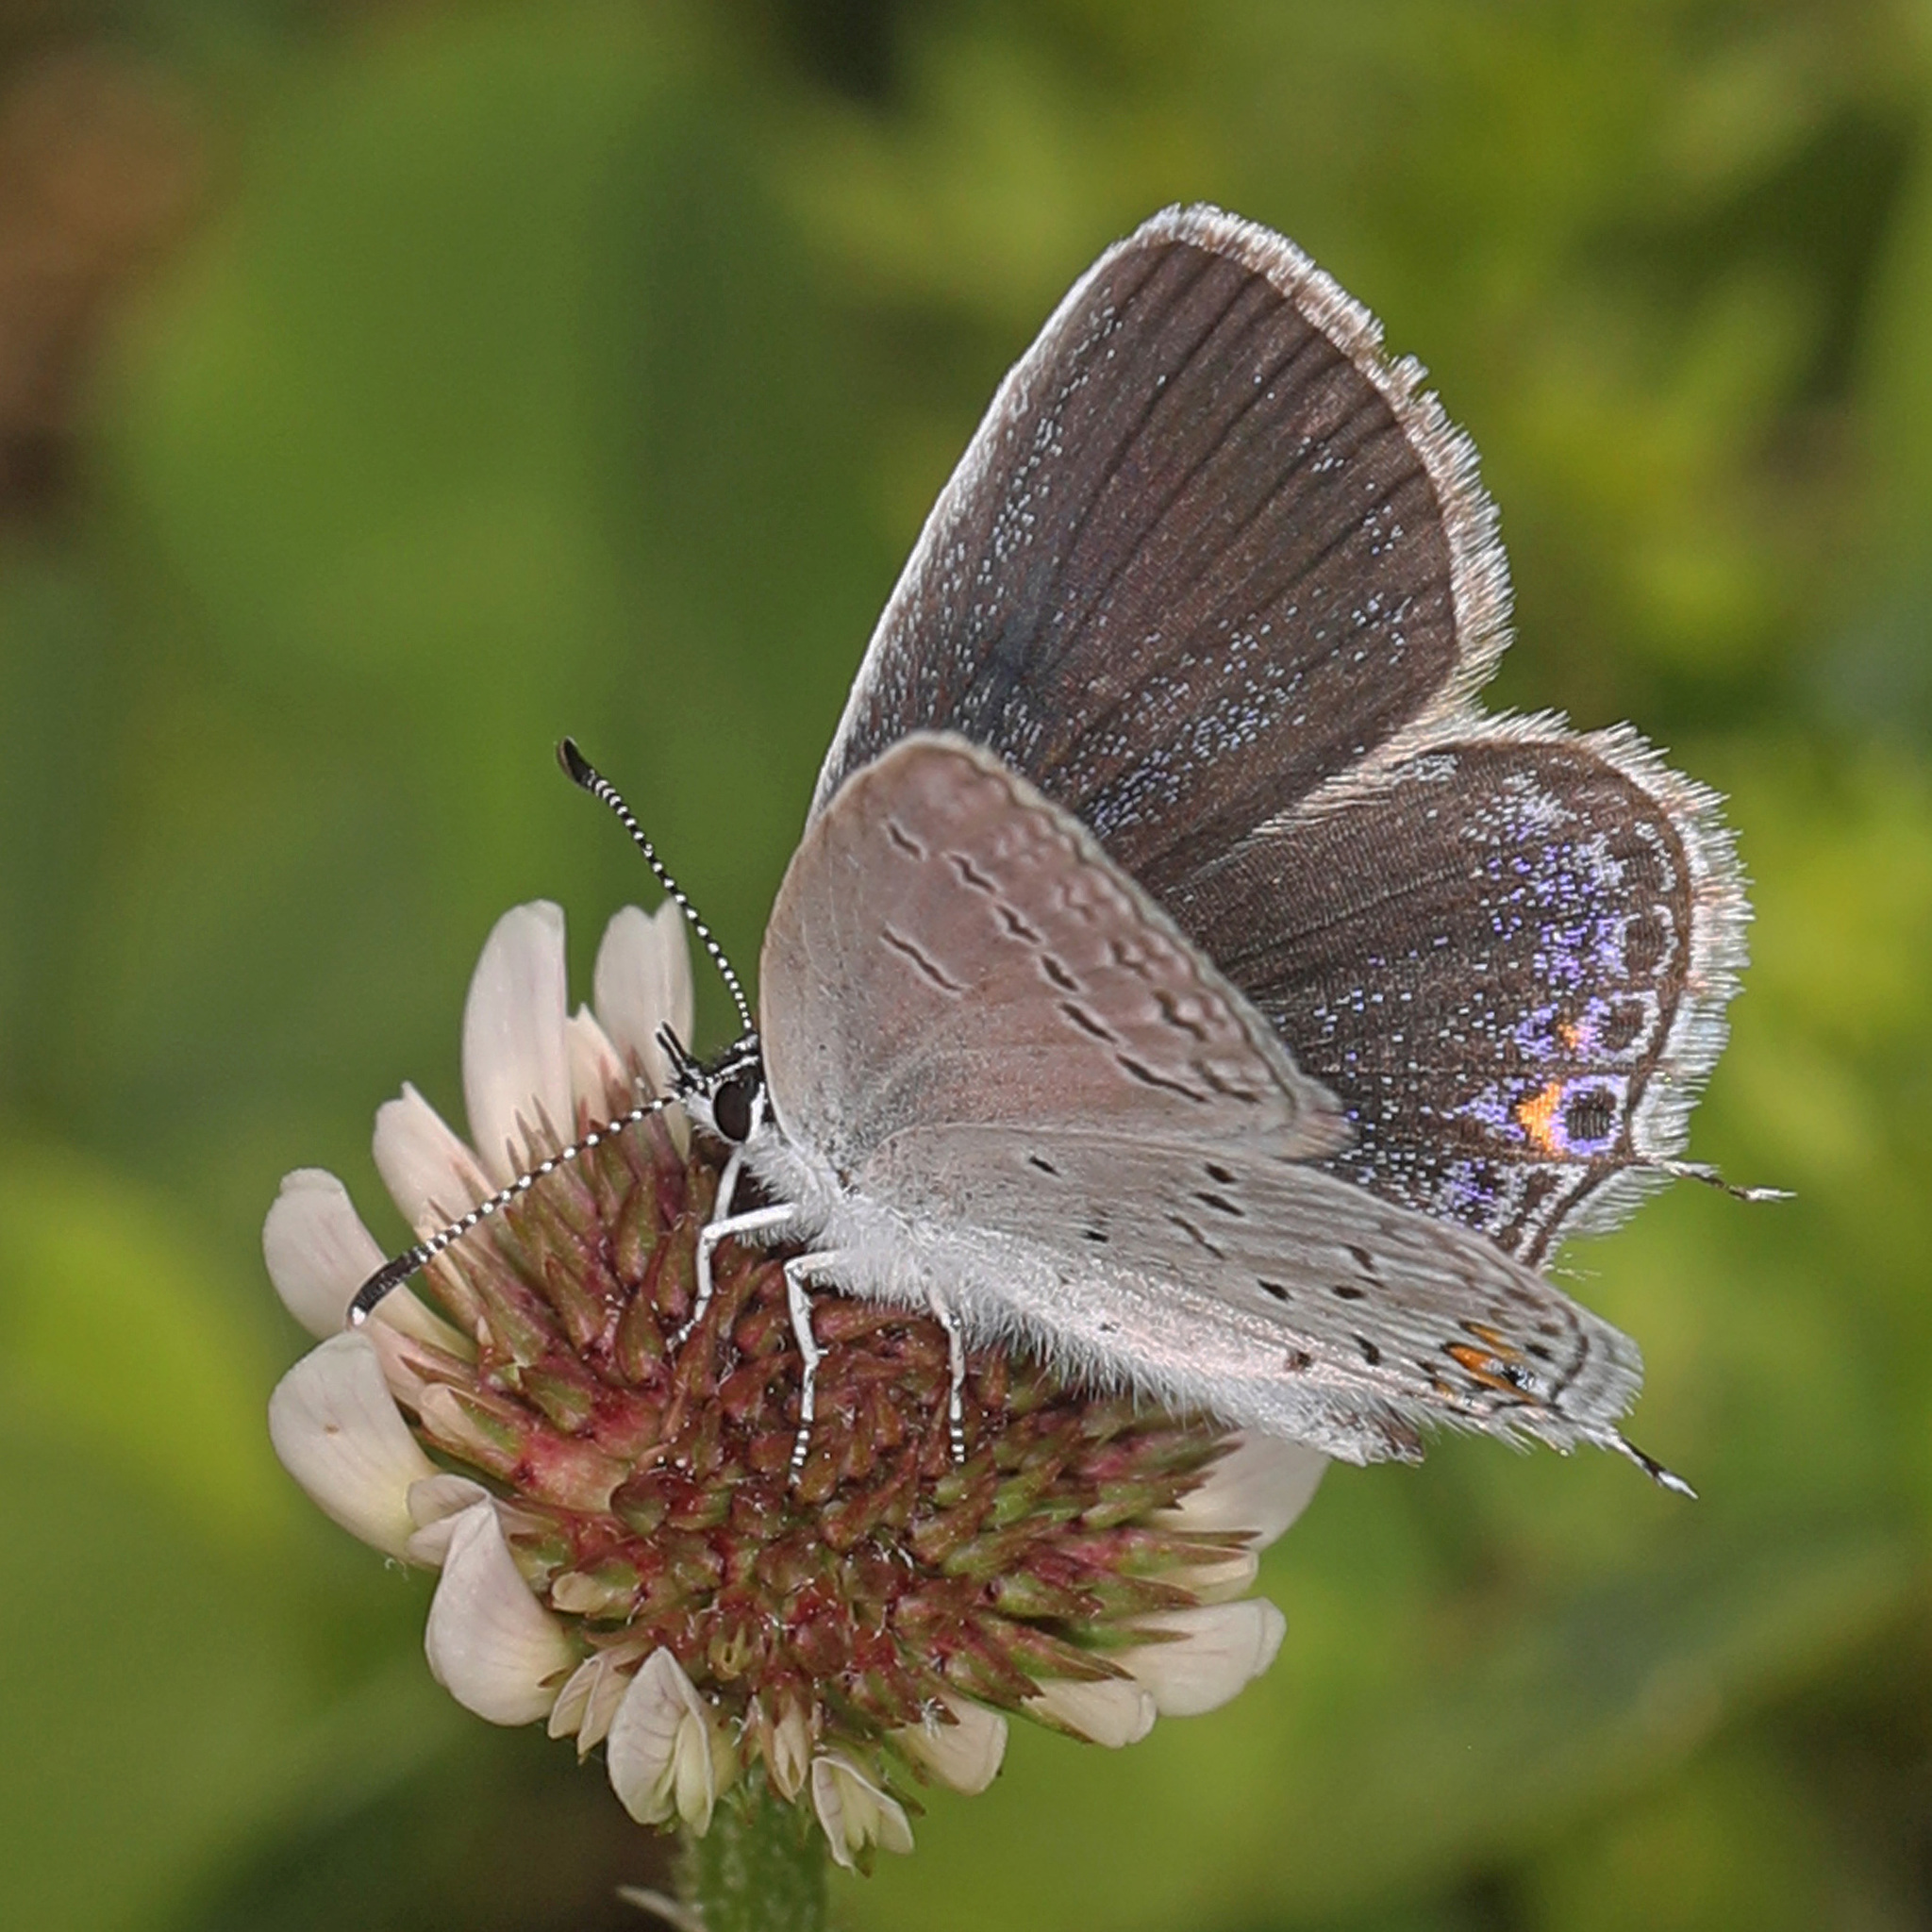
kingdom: Animalia
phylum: Arthropoda
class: Insecta
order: Lepidoptera
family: Lycaenidae
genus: Elkalyce
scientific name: Elkalyce comyntas
